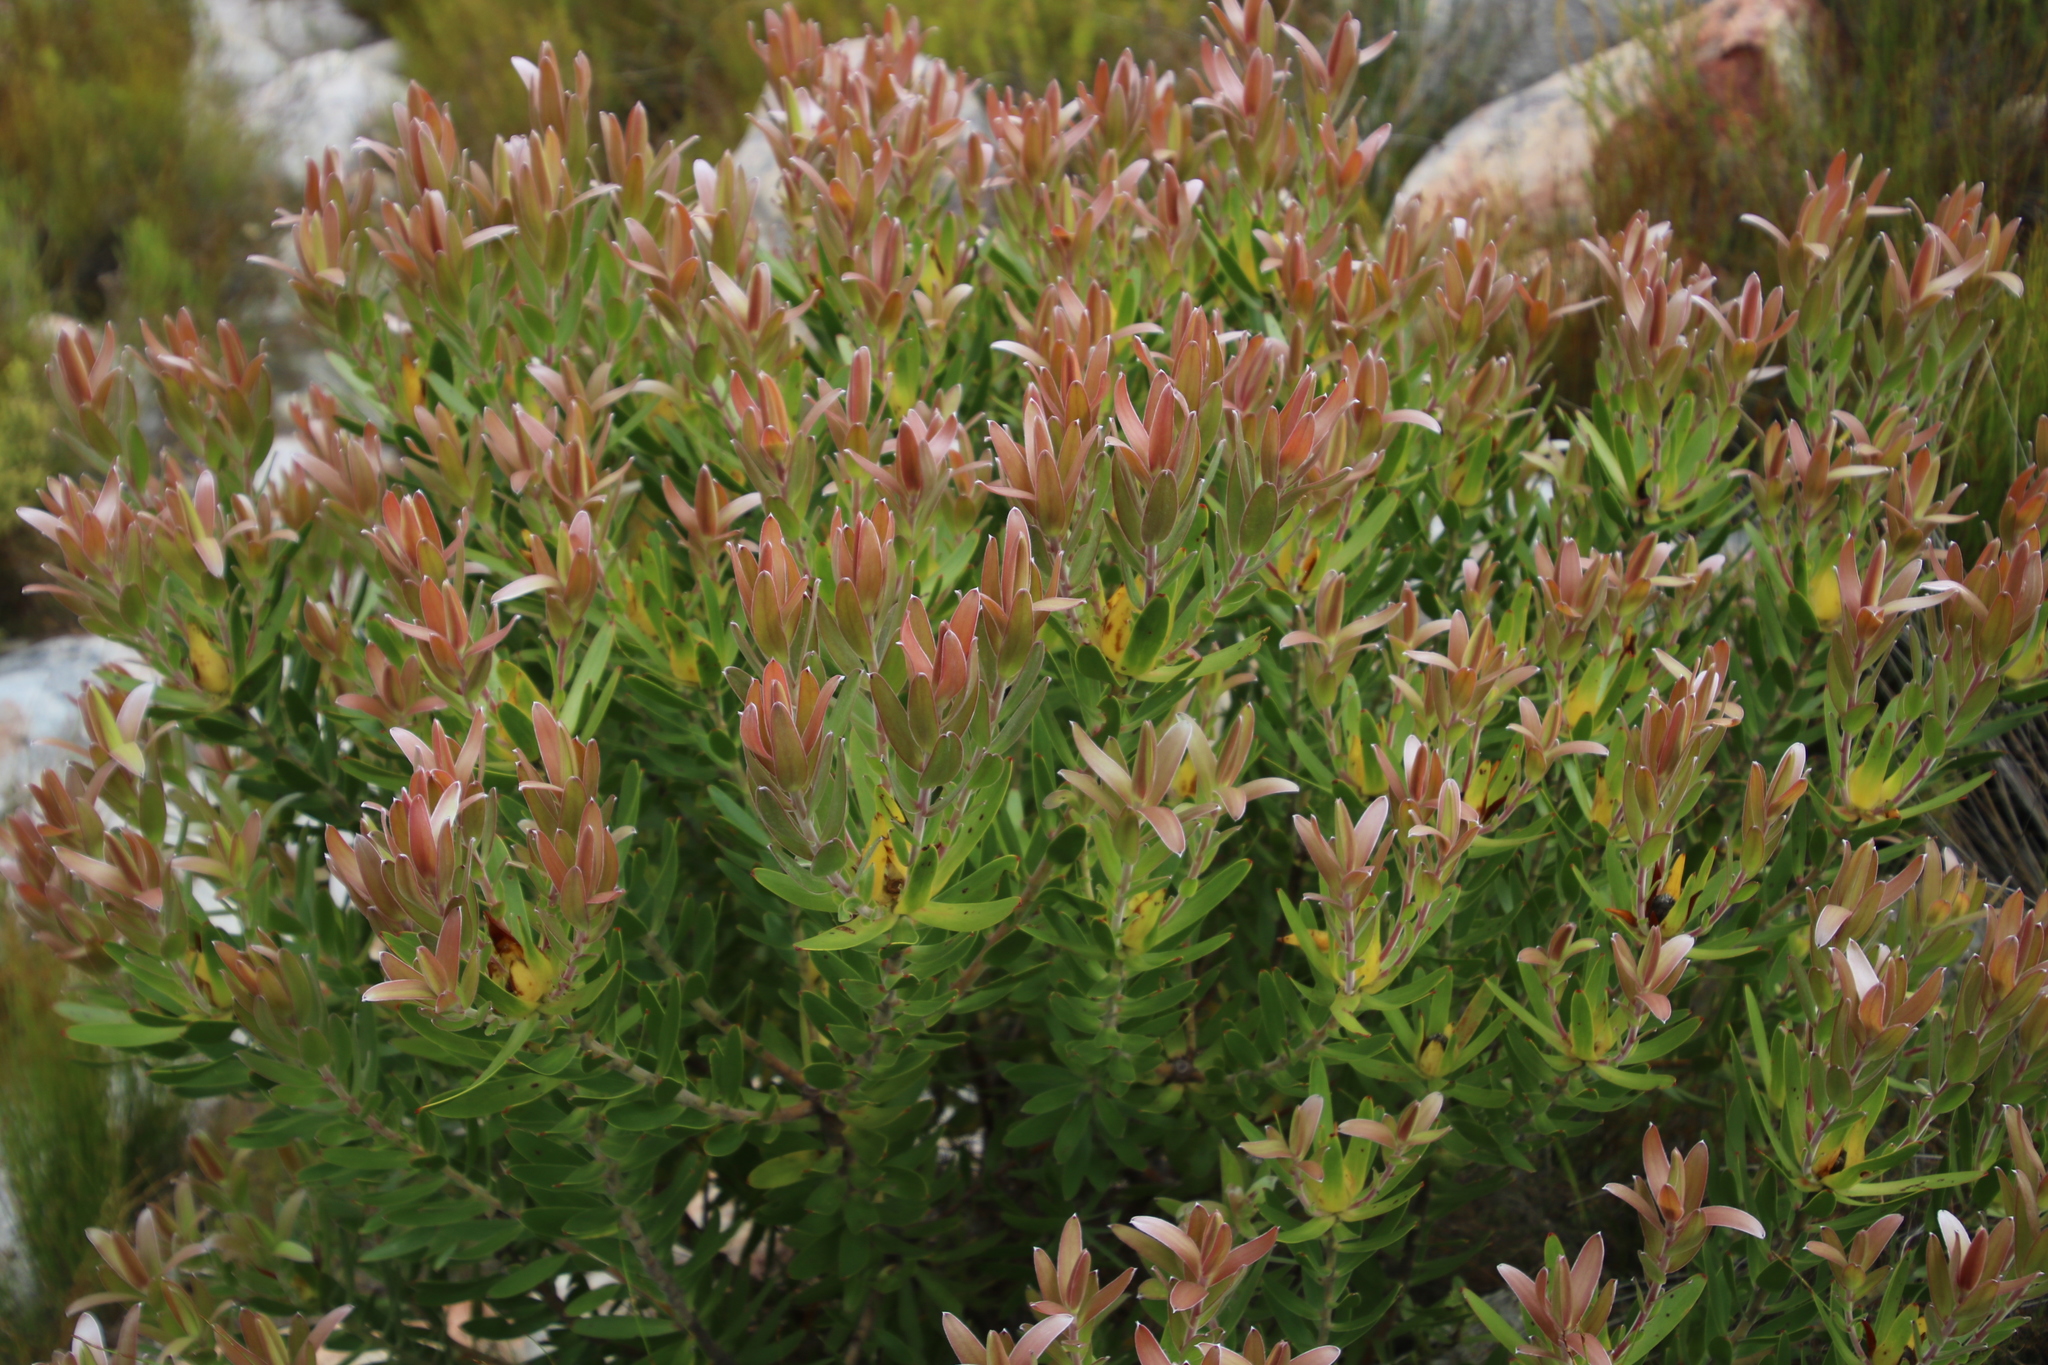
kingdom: Plantae
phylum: Tracheophyta
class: Magnoliopsida
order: Proteales
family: Proteaceae
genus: Leucadendron
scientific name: Leucadendron laureolum
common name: Golden sunshinebush
